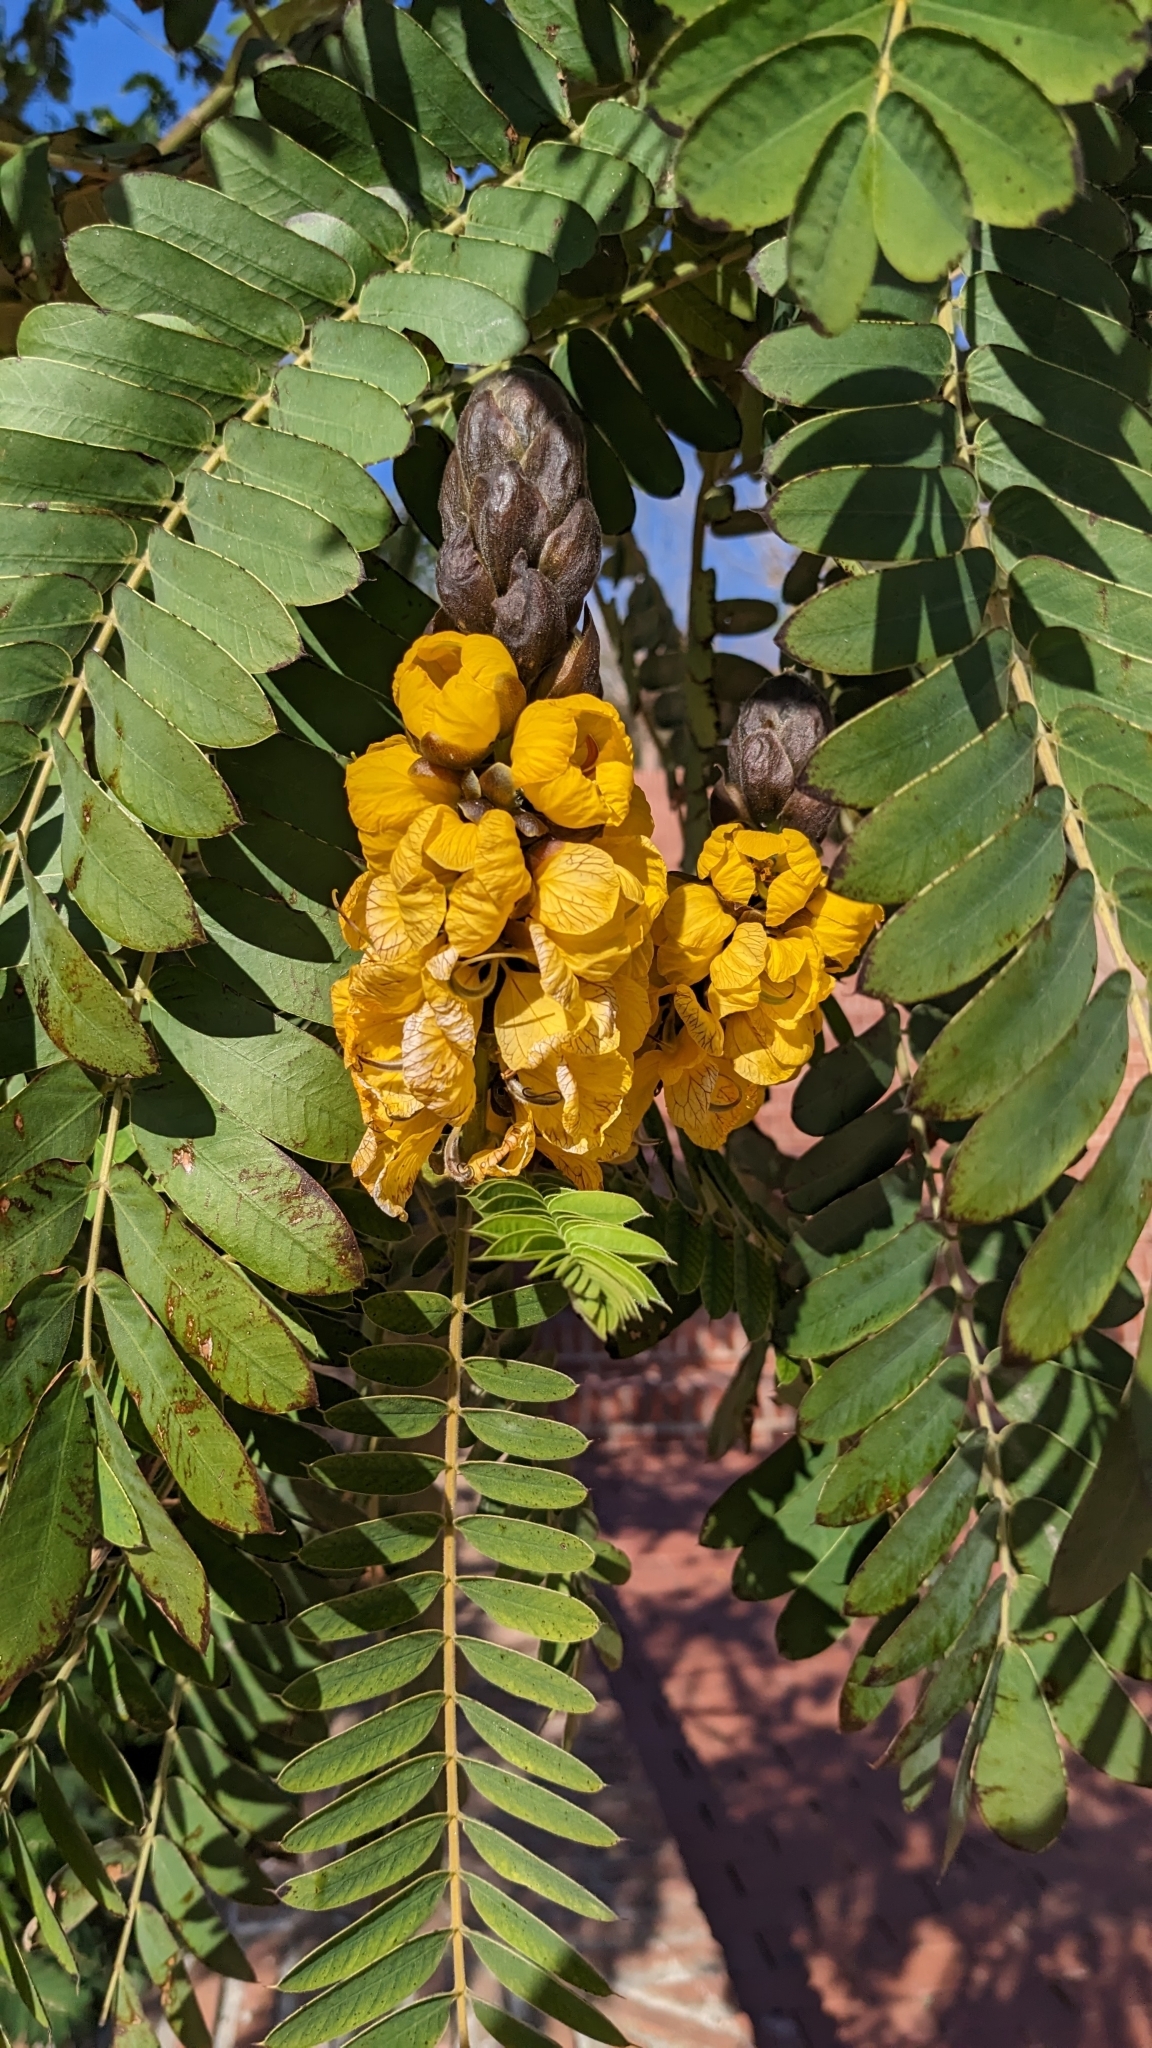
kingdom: Plantae
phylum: Tracheophyta
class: Magnoliopsida
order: Fabales
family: Fabaceae
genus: Senna
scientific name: Senna didymobotrya
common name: African senna
